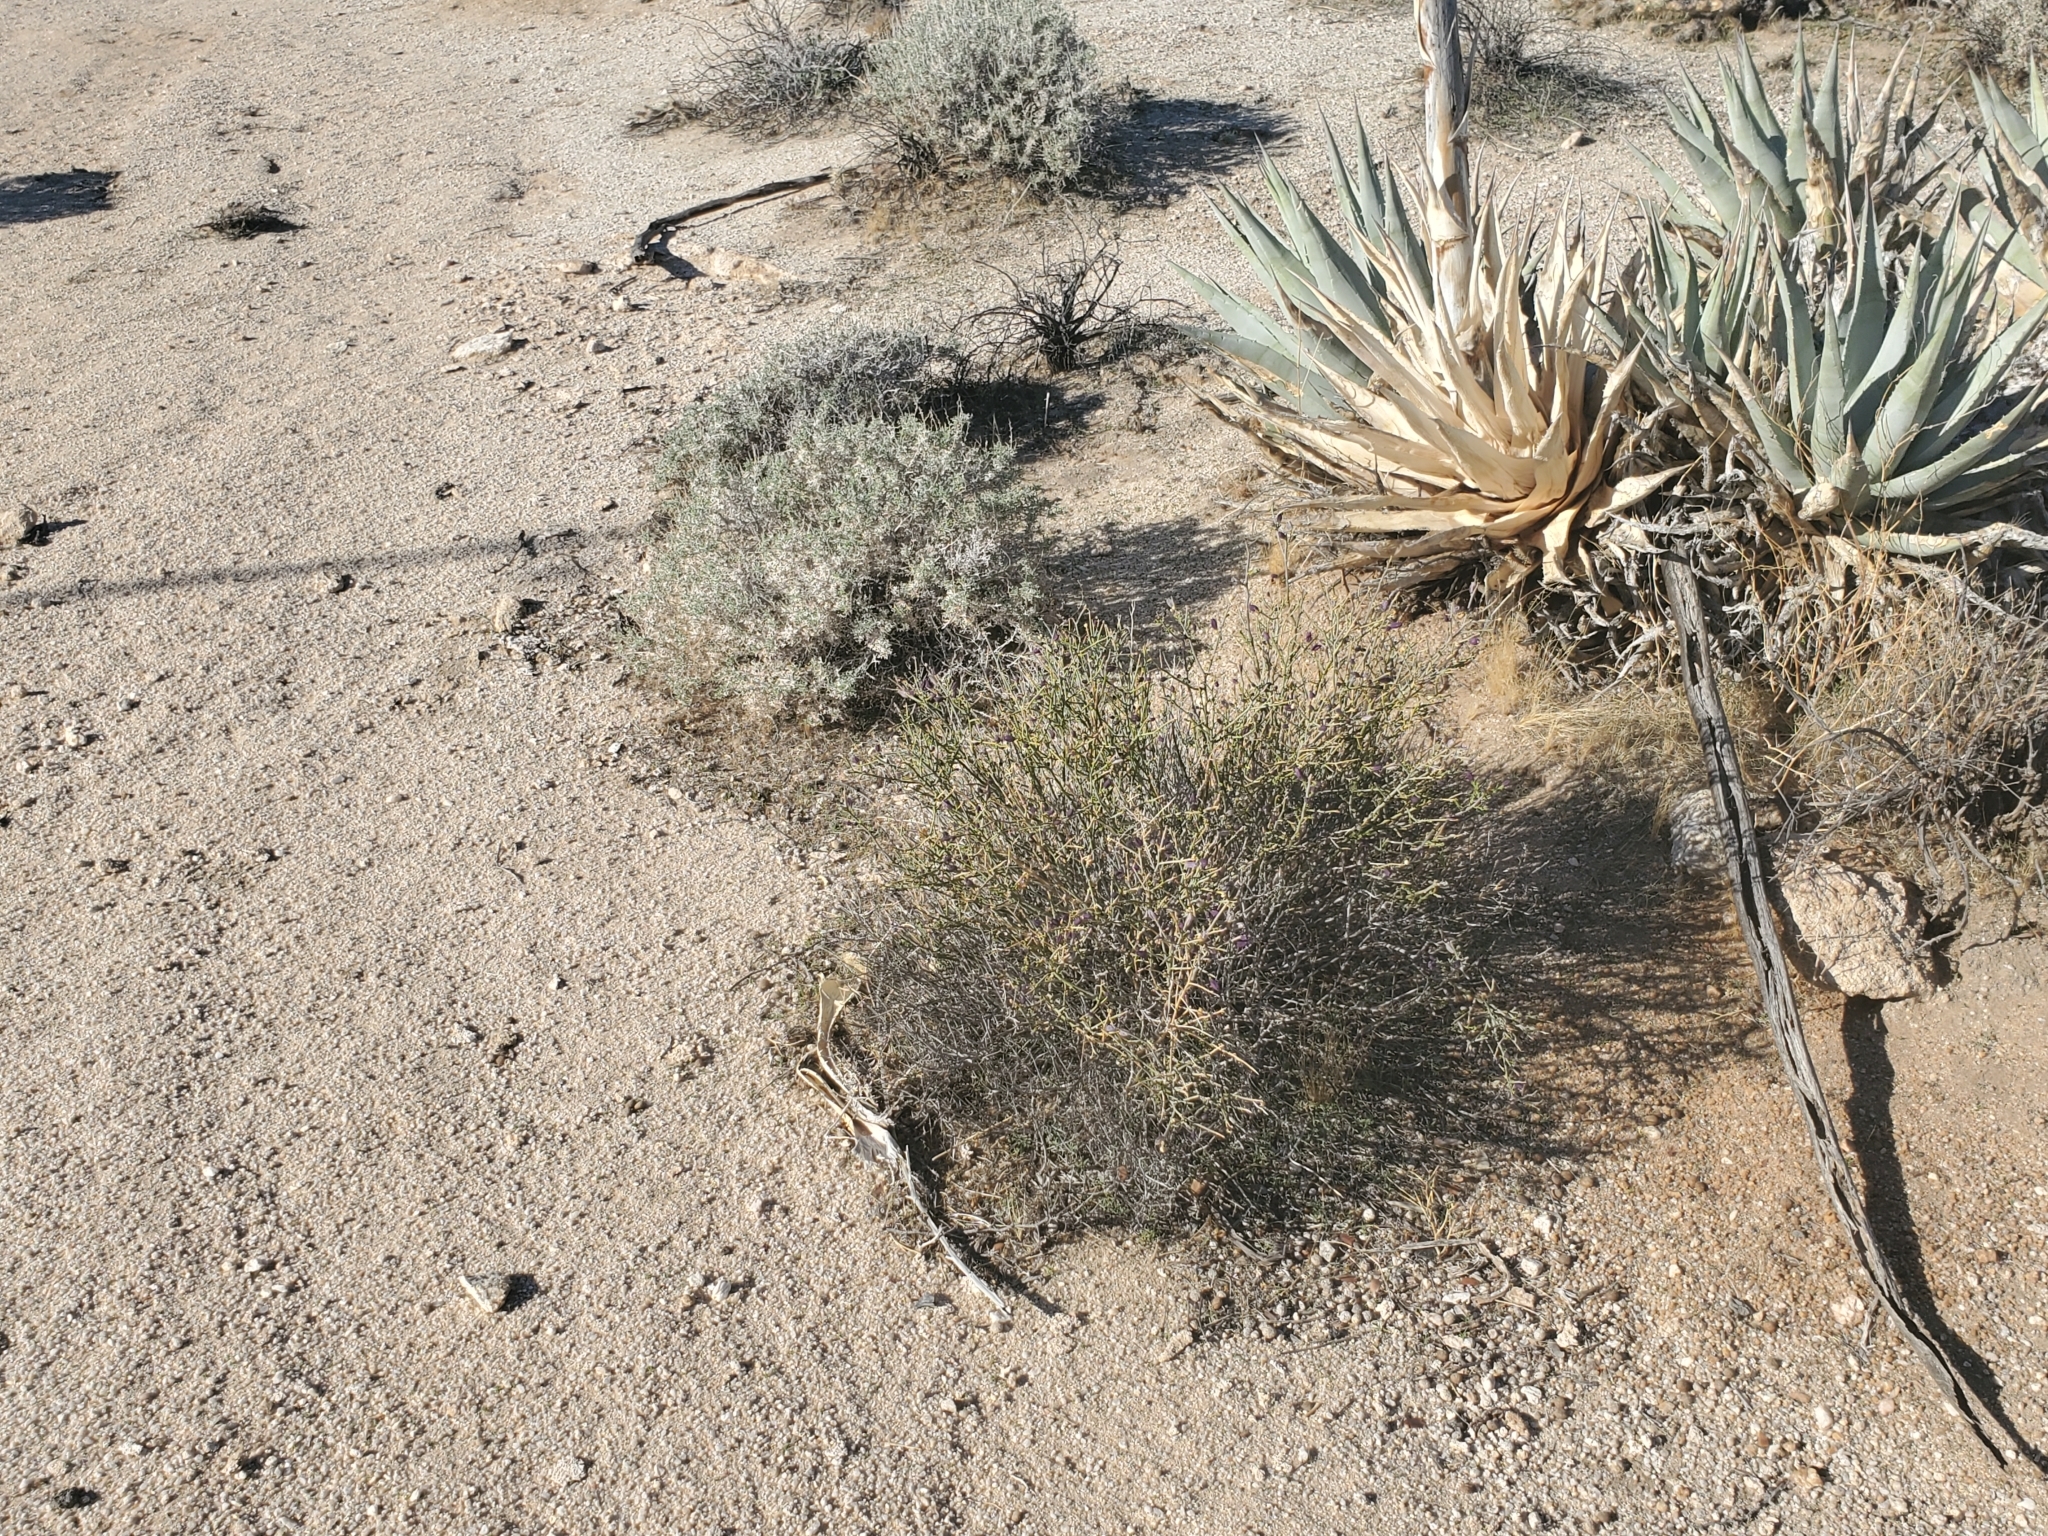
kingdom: Plantae
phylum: Tracheophyta
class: Magnoliopsida
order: Sapindales
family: Rutaceae
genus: Thamnosma
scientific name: Thamnosma montana
